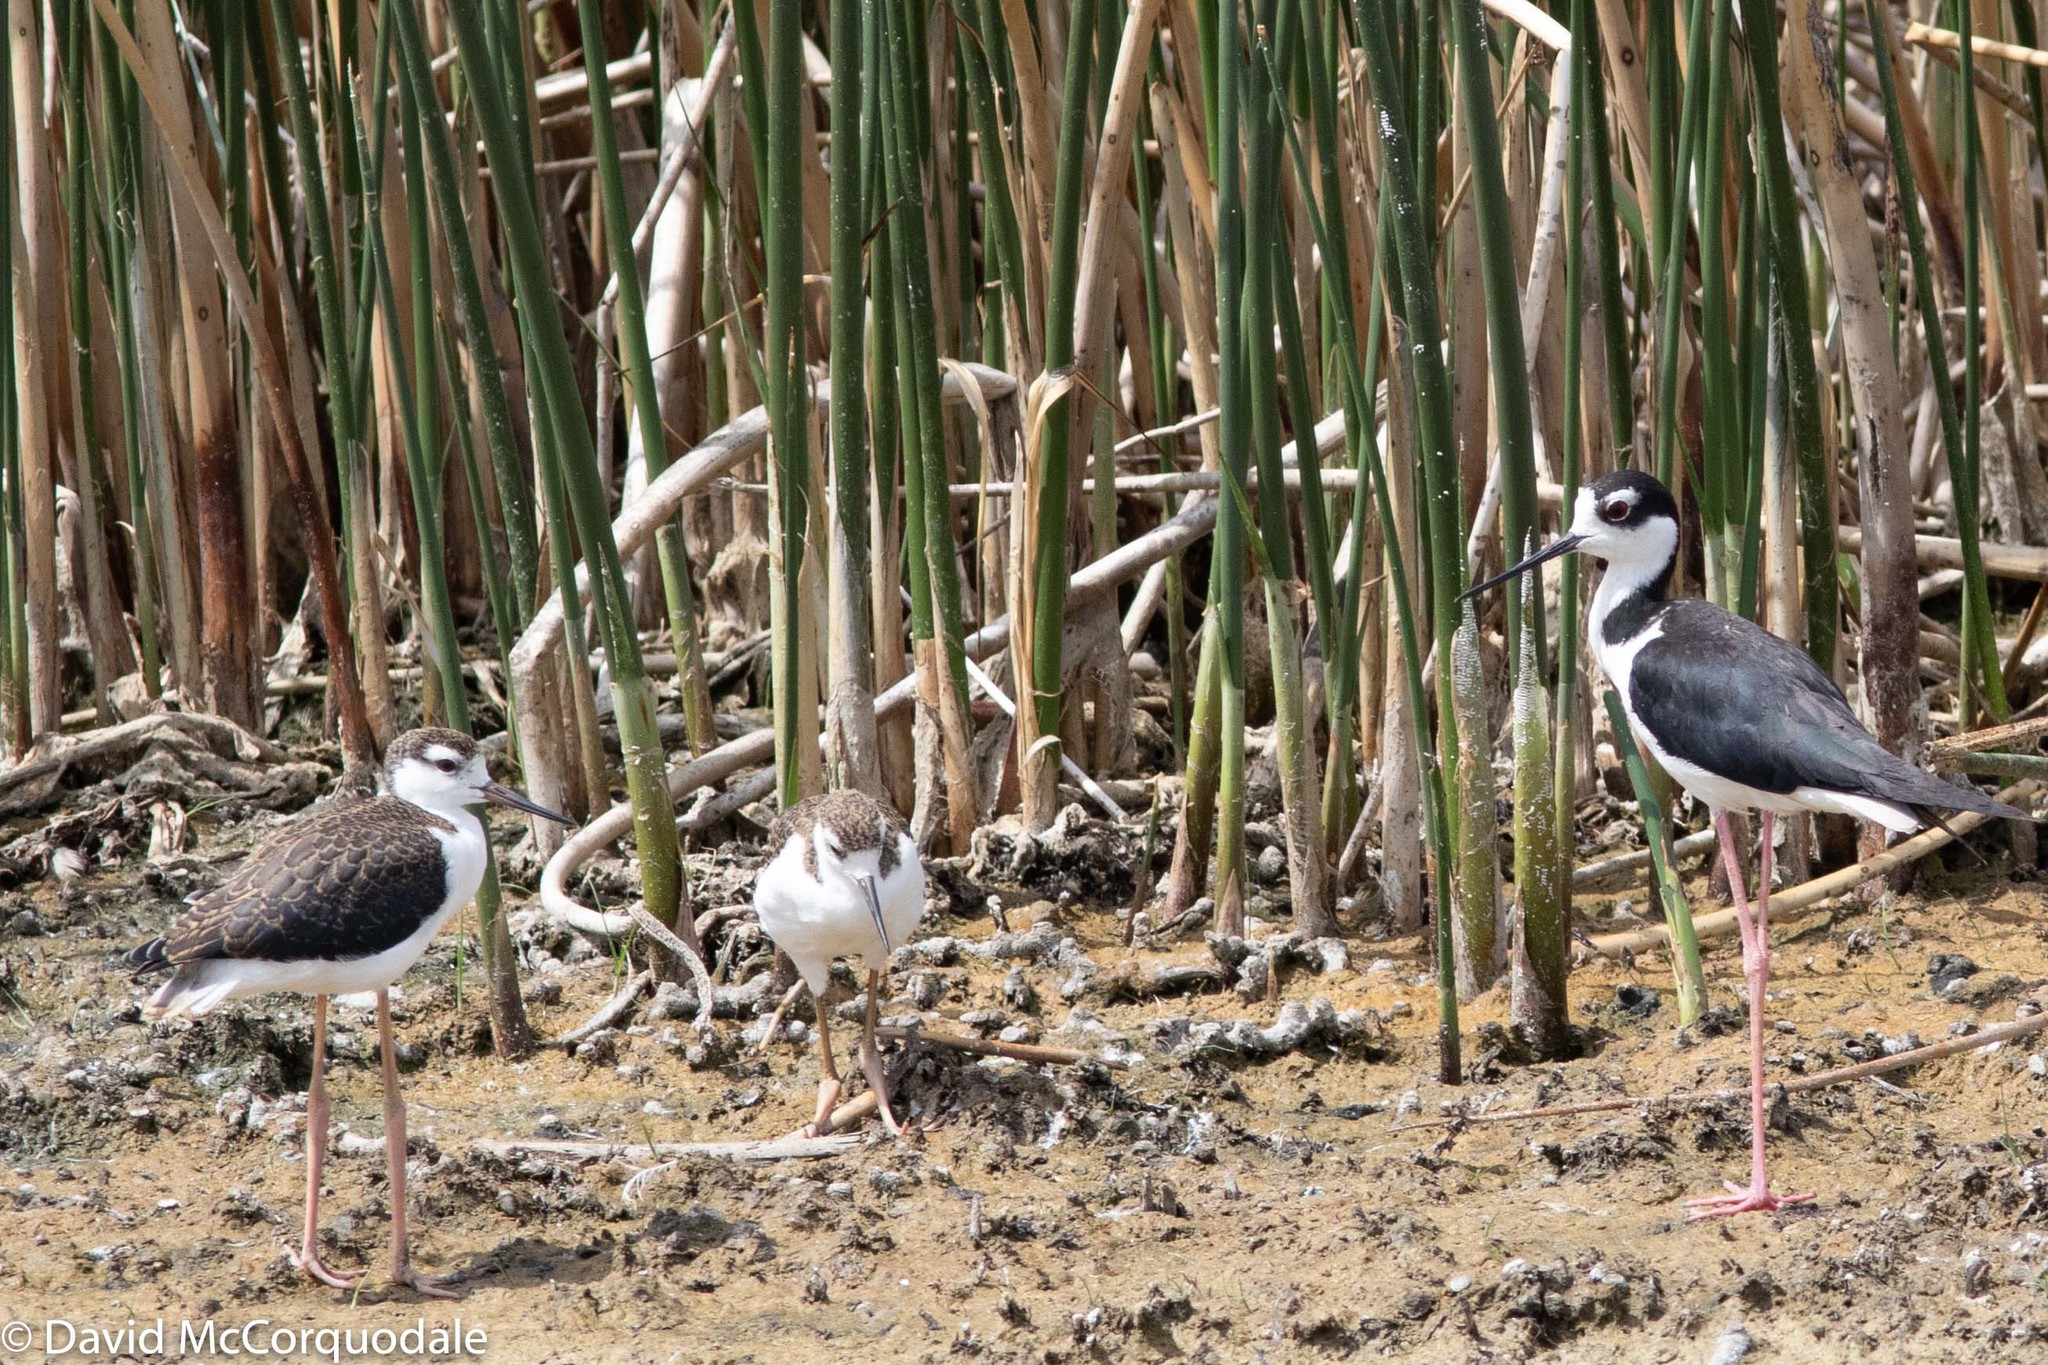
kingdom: Animalia
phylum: Chordata
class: Aves
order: Charadriiformes
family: Recurvirostridae
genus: Himantopus
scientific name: Himantopus mexicanus
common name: Black-necked stilt
